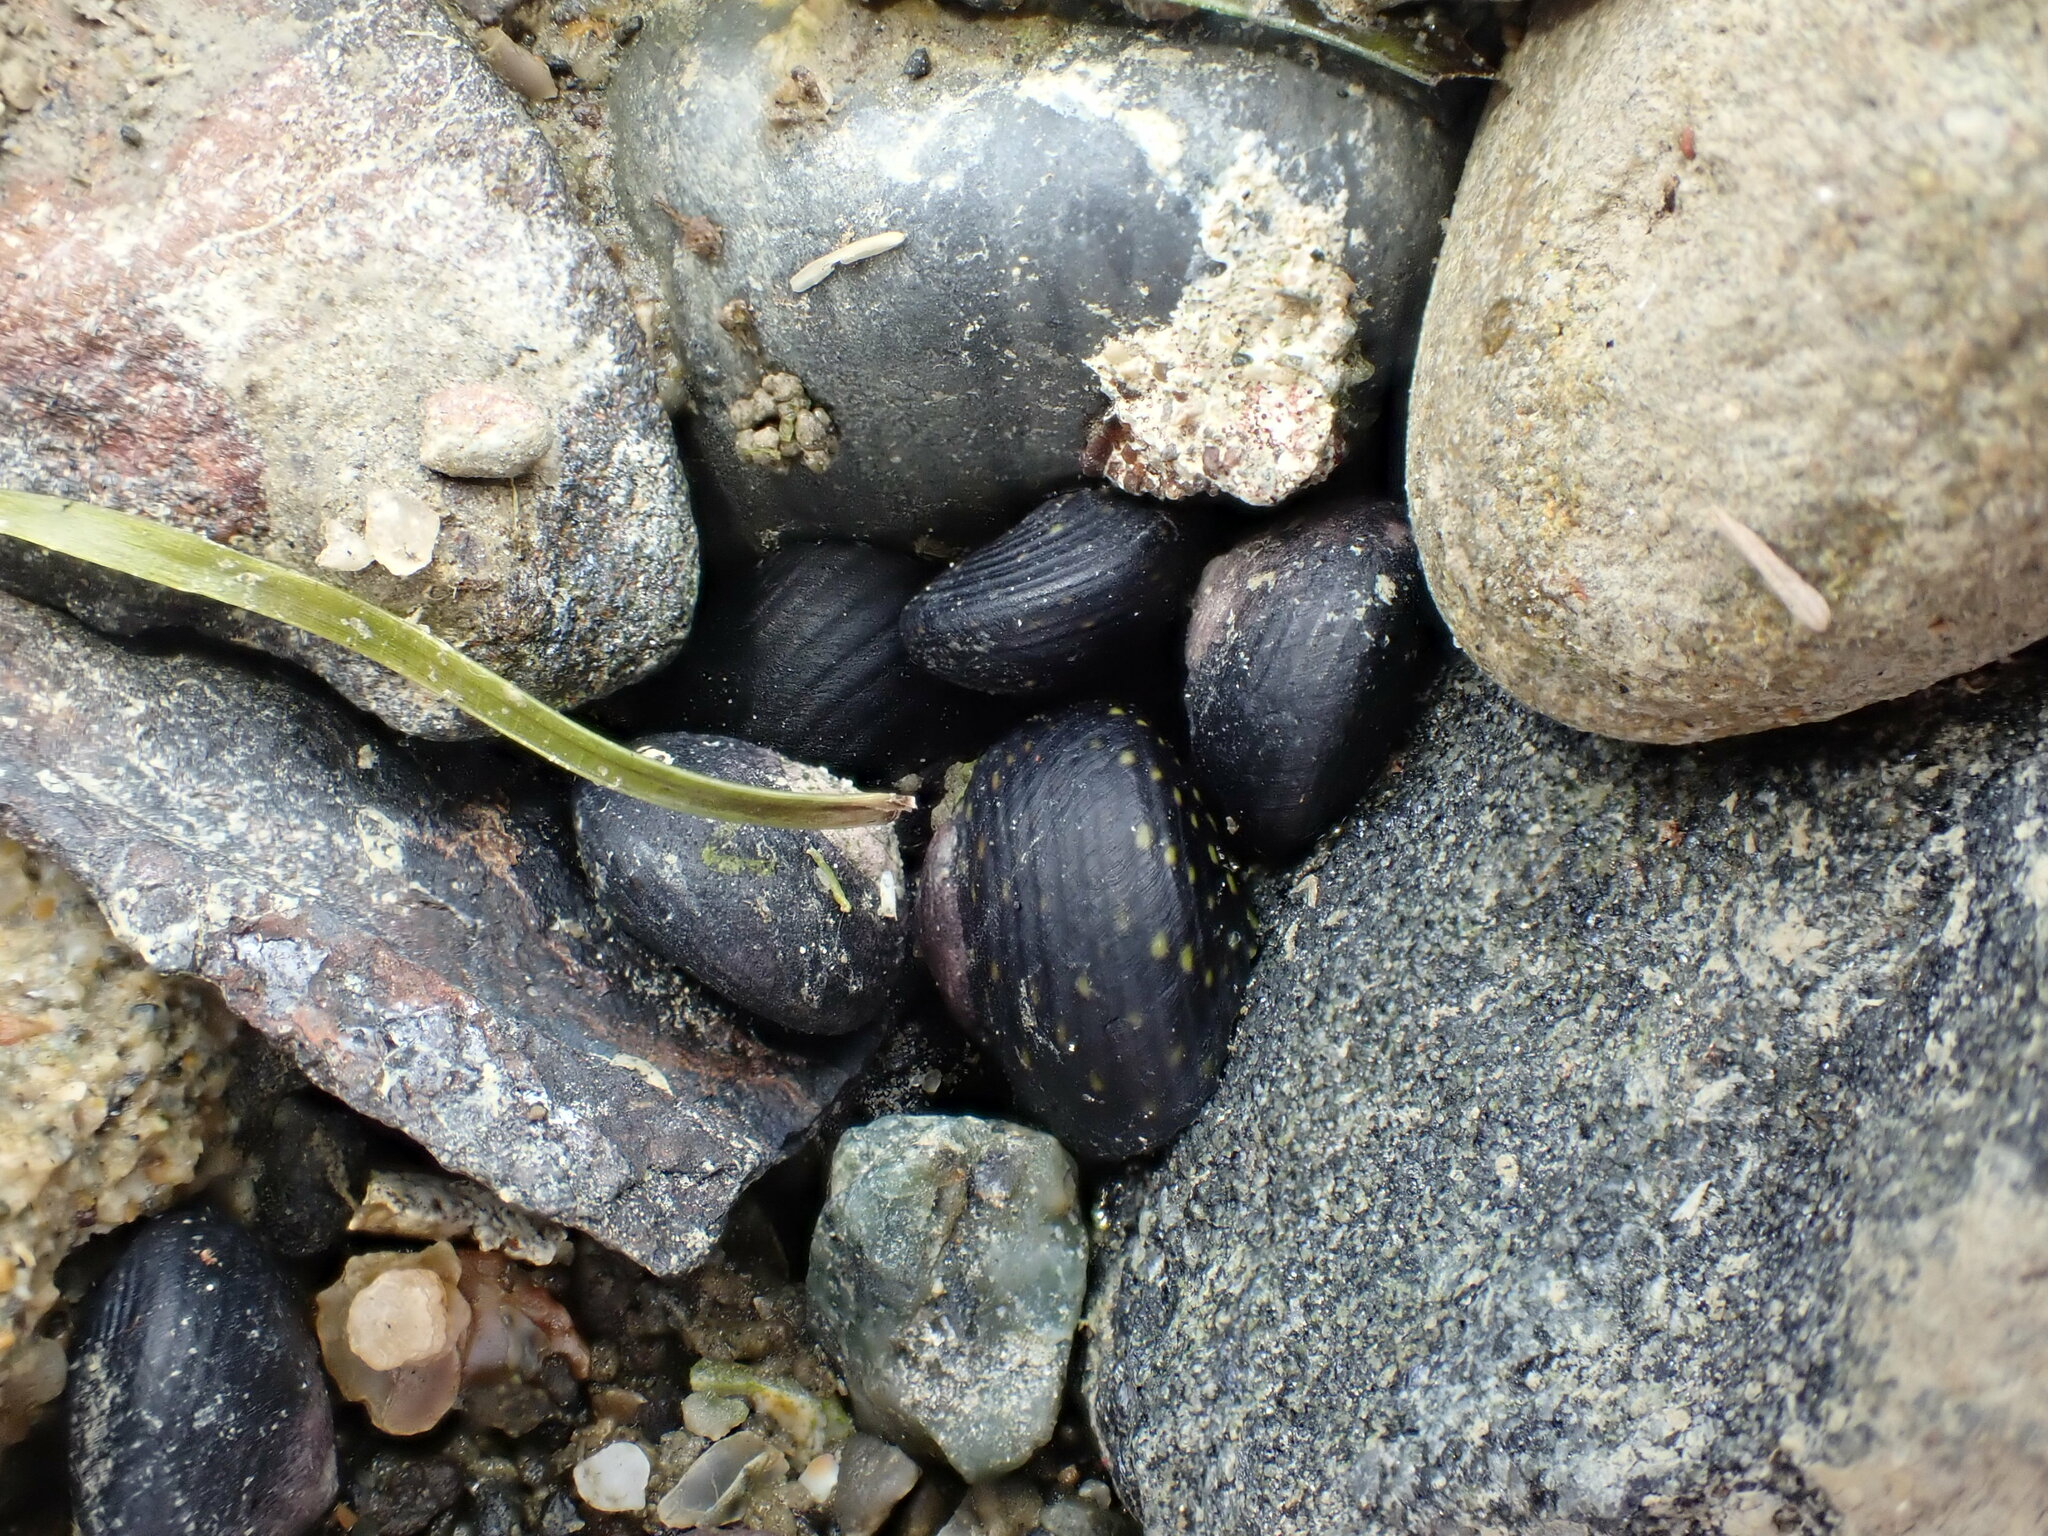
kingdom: Animalia
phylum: Mollusca
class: Gastropoda
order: Trochida
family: Trochidae
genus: Diloma
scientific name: Diloma aridum
